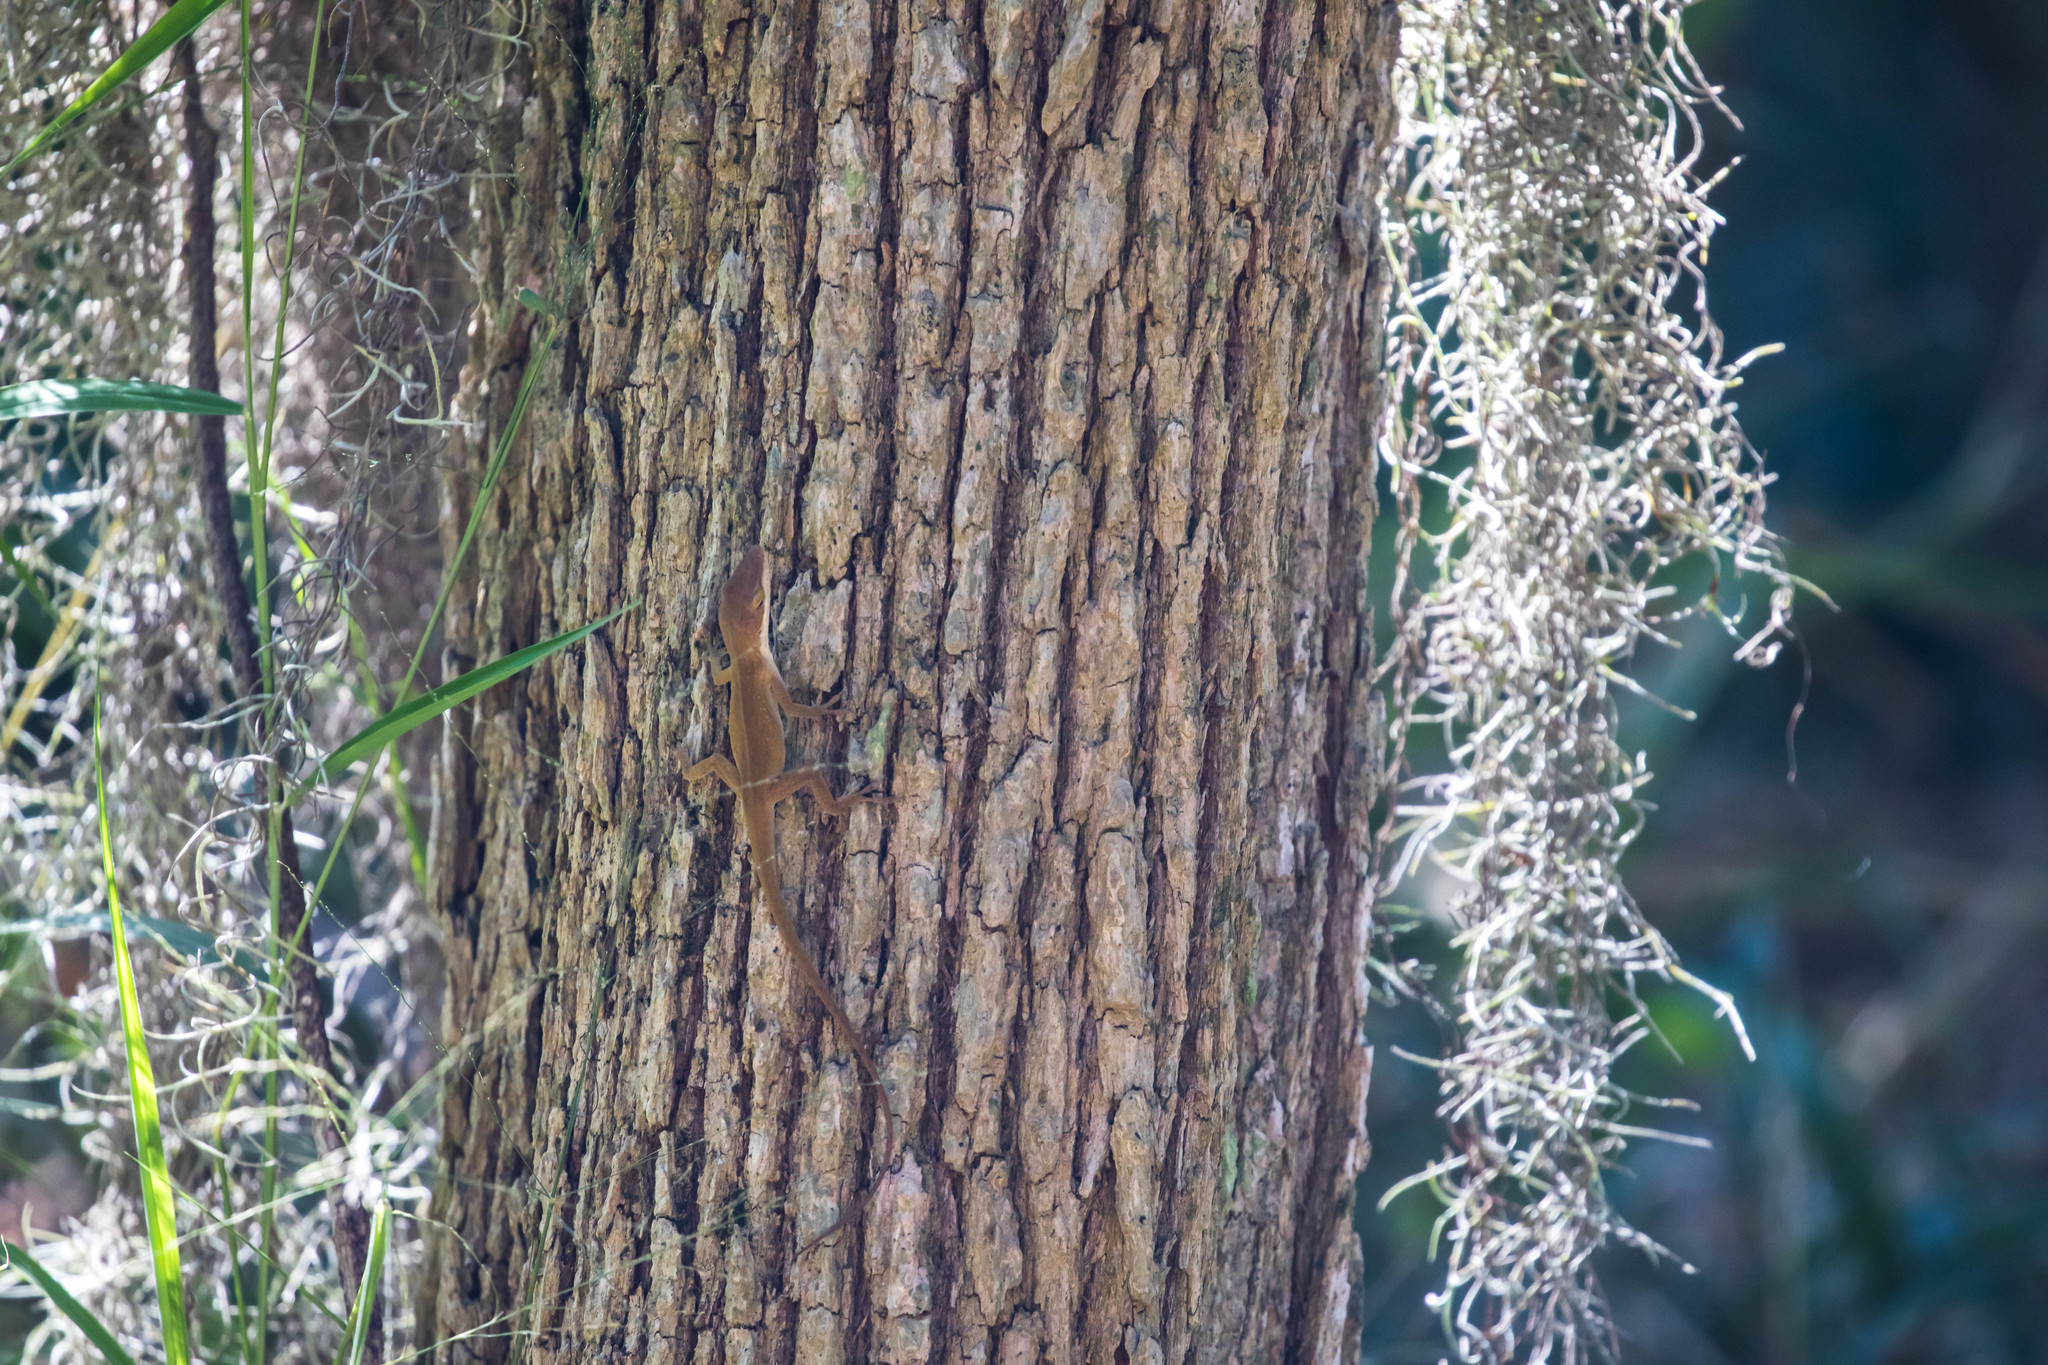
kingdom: Animalia
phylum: Chordata
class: Squamata
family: Dactyloidae
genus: Anolis
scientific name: Anolis carolinensis
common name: Green anole
